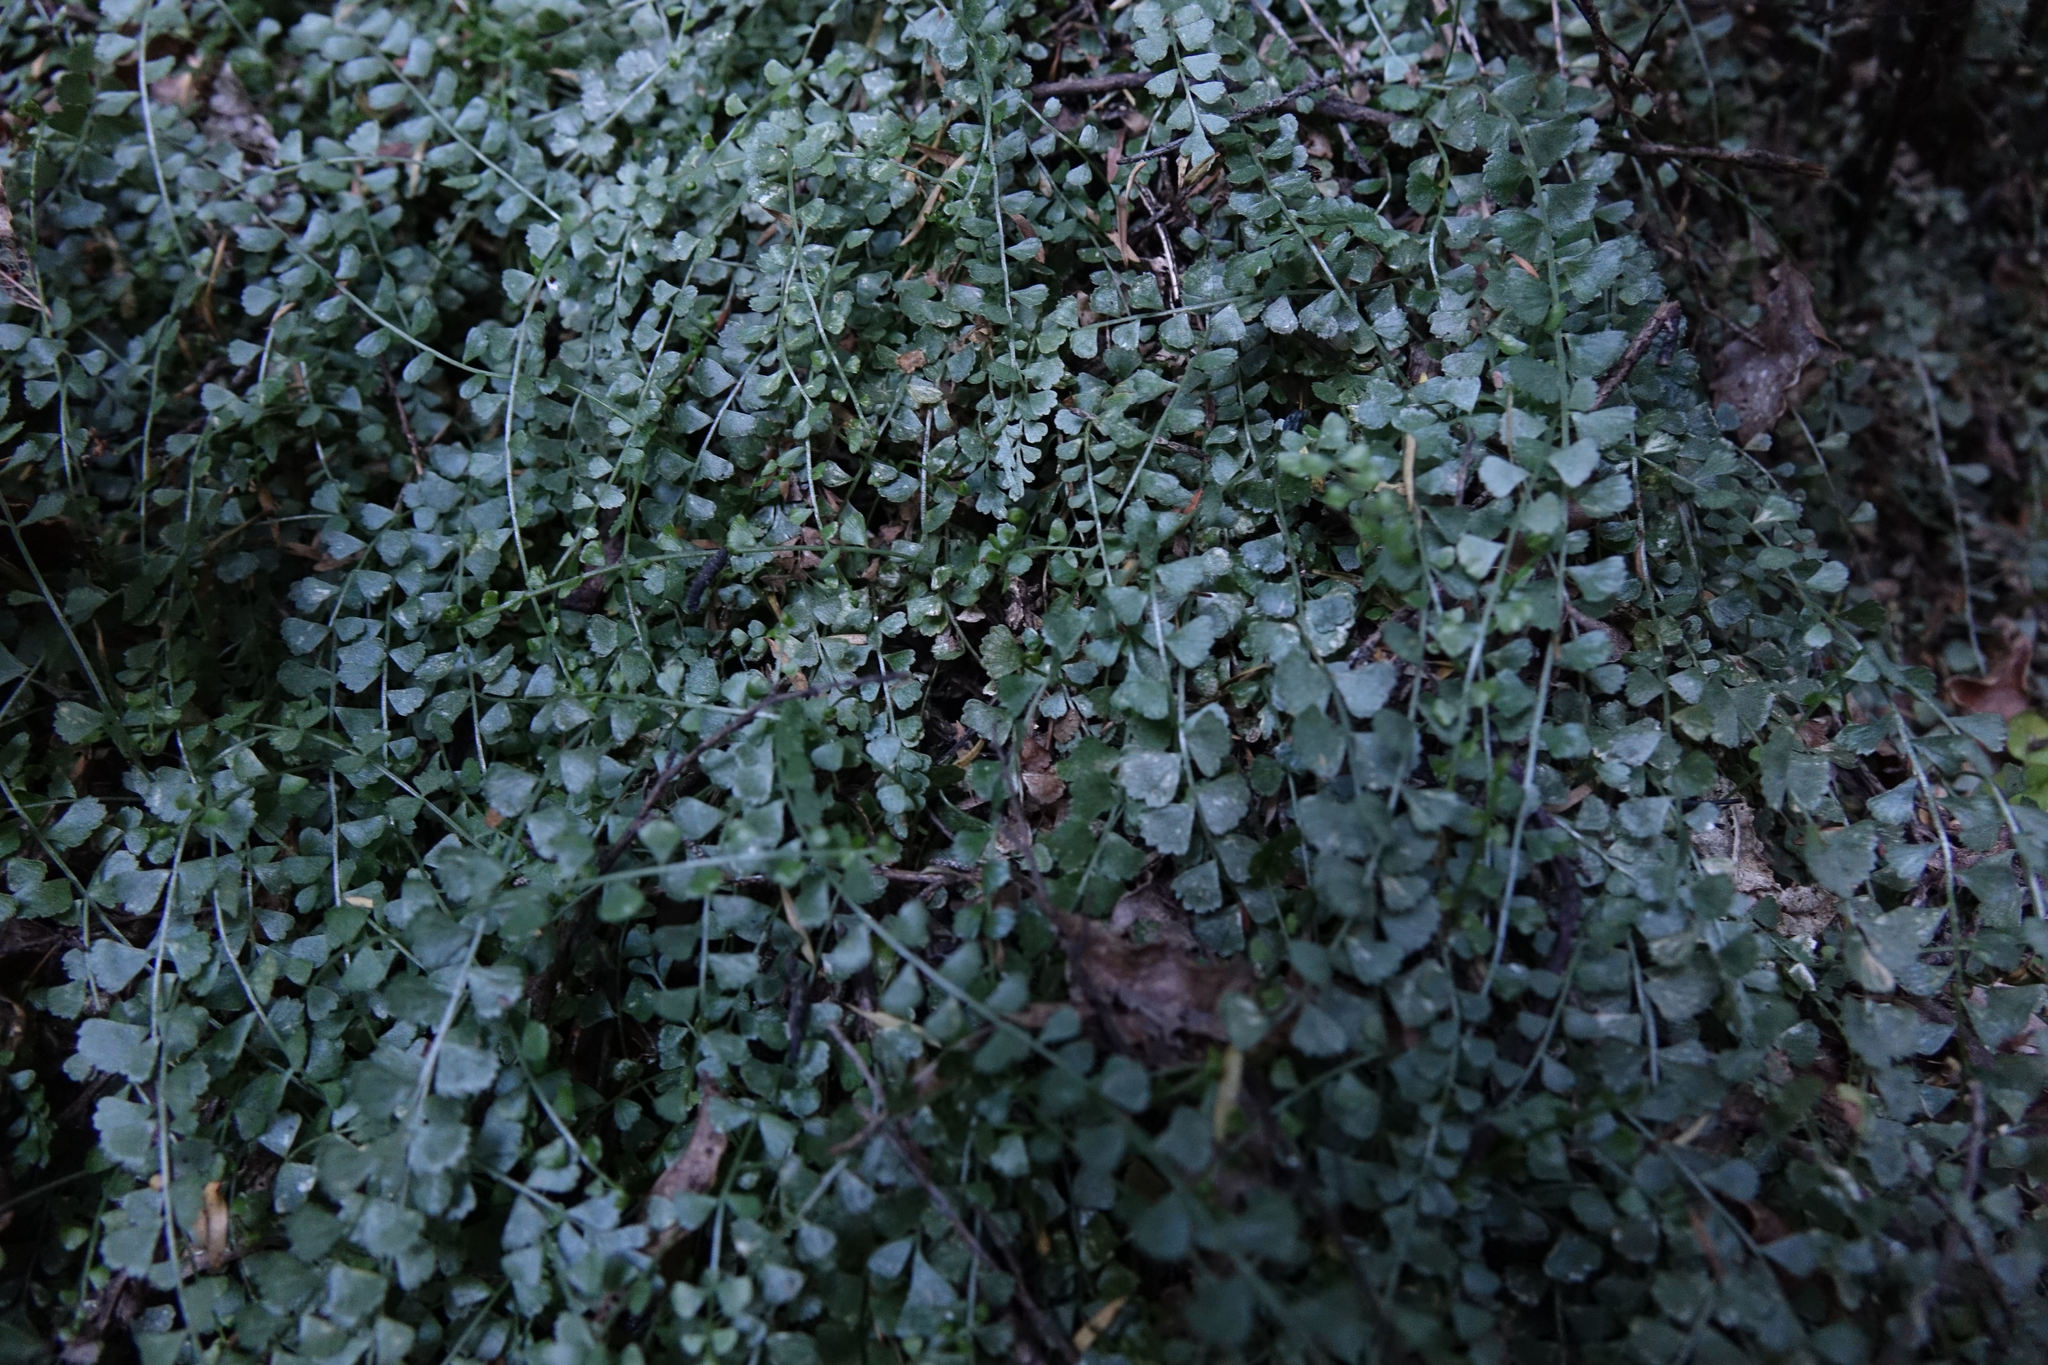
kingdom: Plantae
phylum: Tracheophyta
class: Polypodiopsida
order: Polypodiales
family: Aspleniaceae
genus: Asplenium
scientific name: Asplenium flabellifolium
